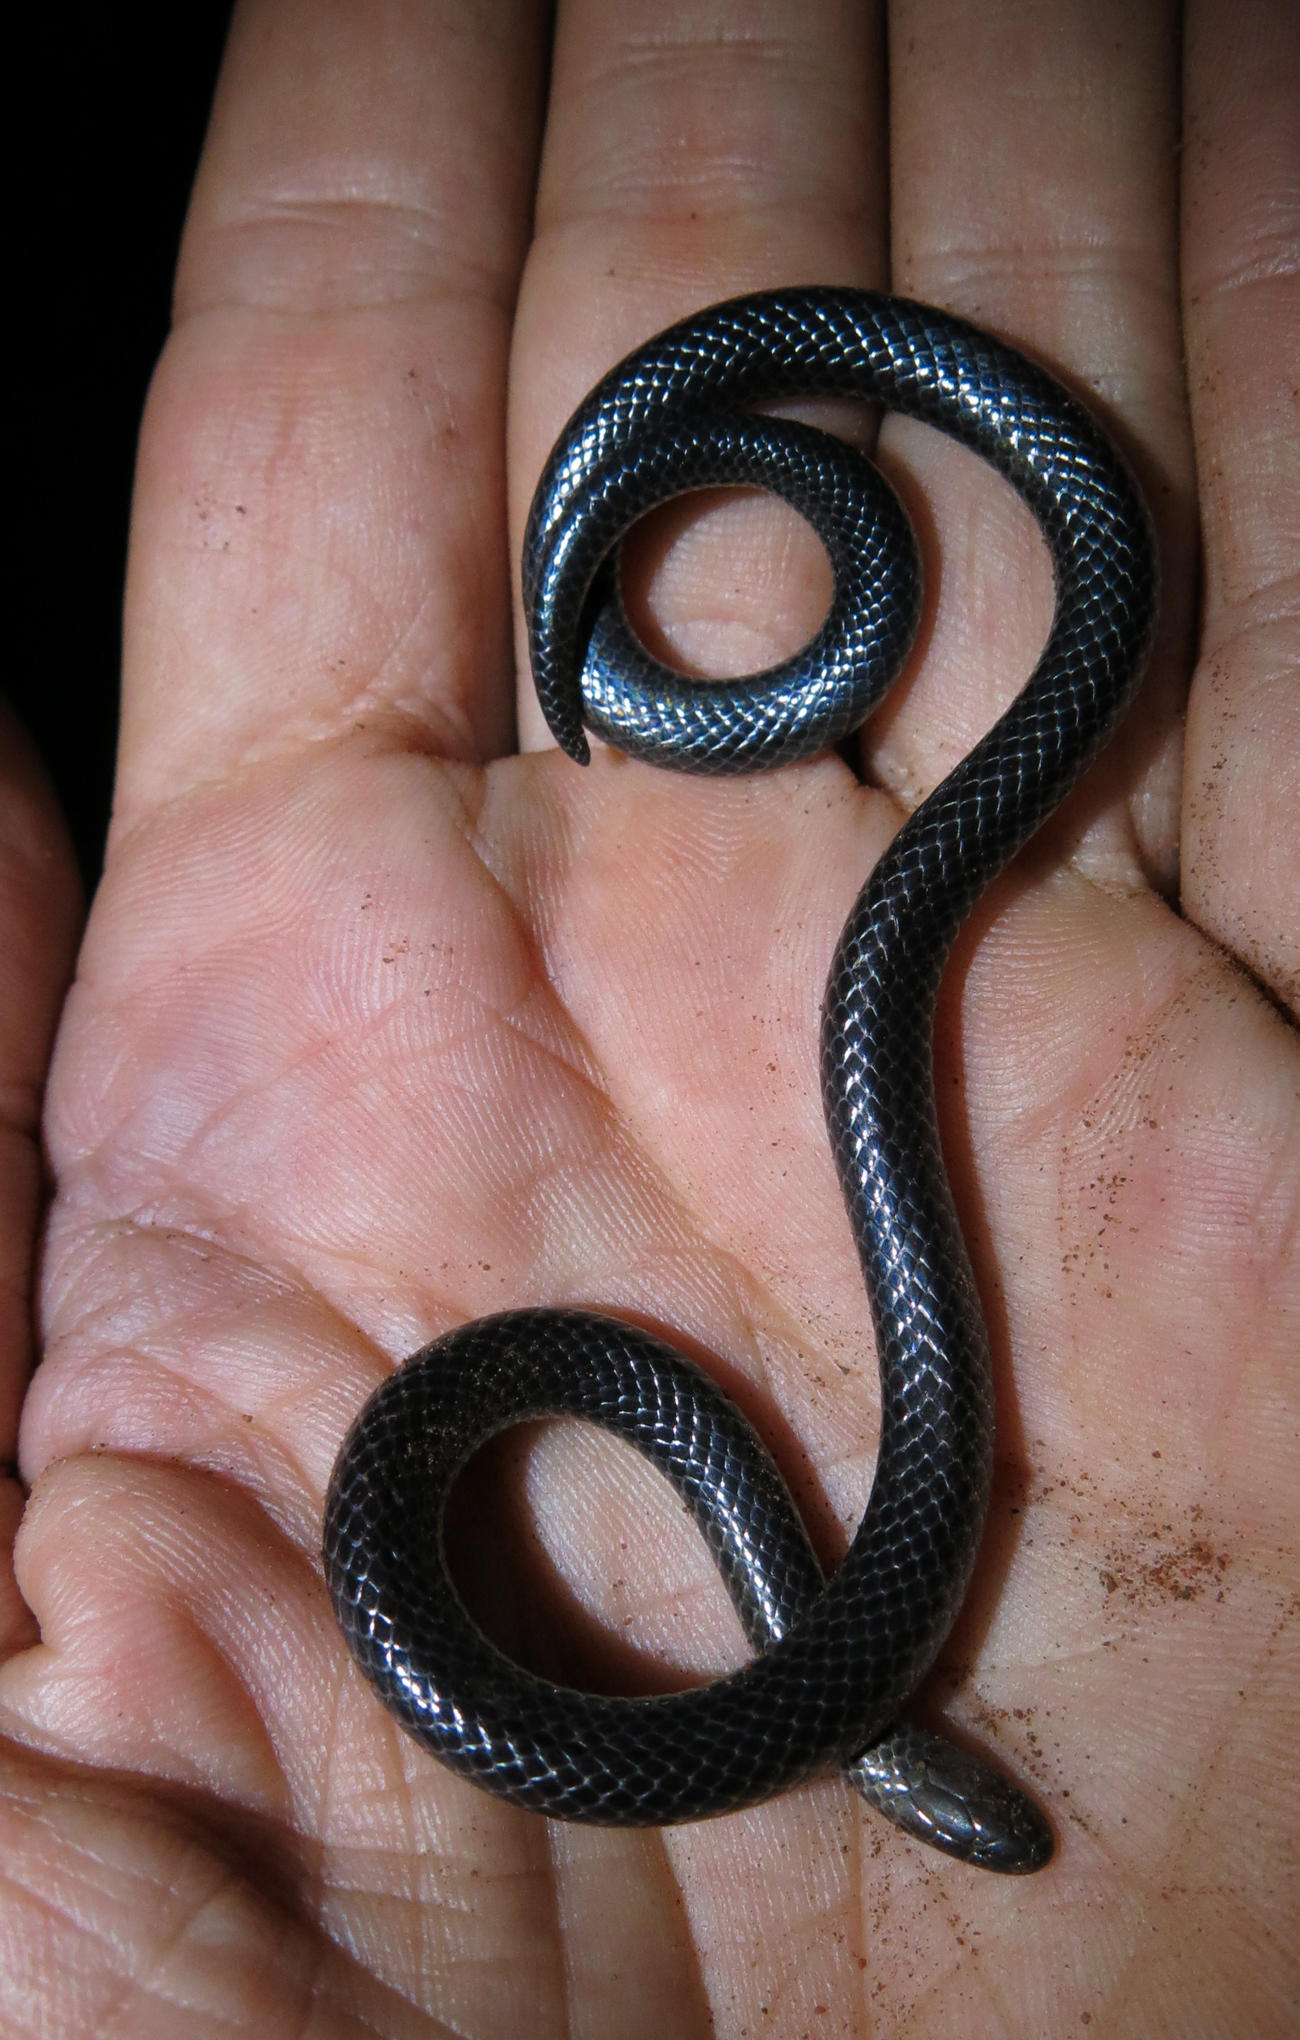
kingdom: Animalia
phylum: Chordata
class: Squamata
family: Atractaspididae
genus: Amblyodipsas
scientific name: Amblyodipsas microphthalma
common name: Eastern purple-glossed snake
